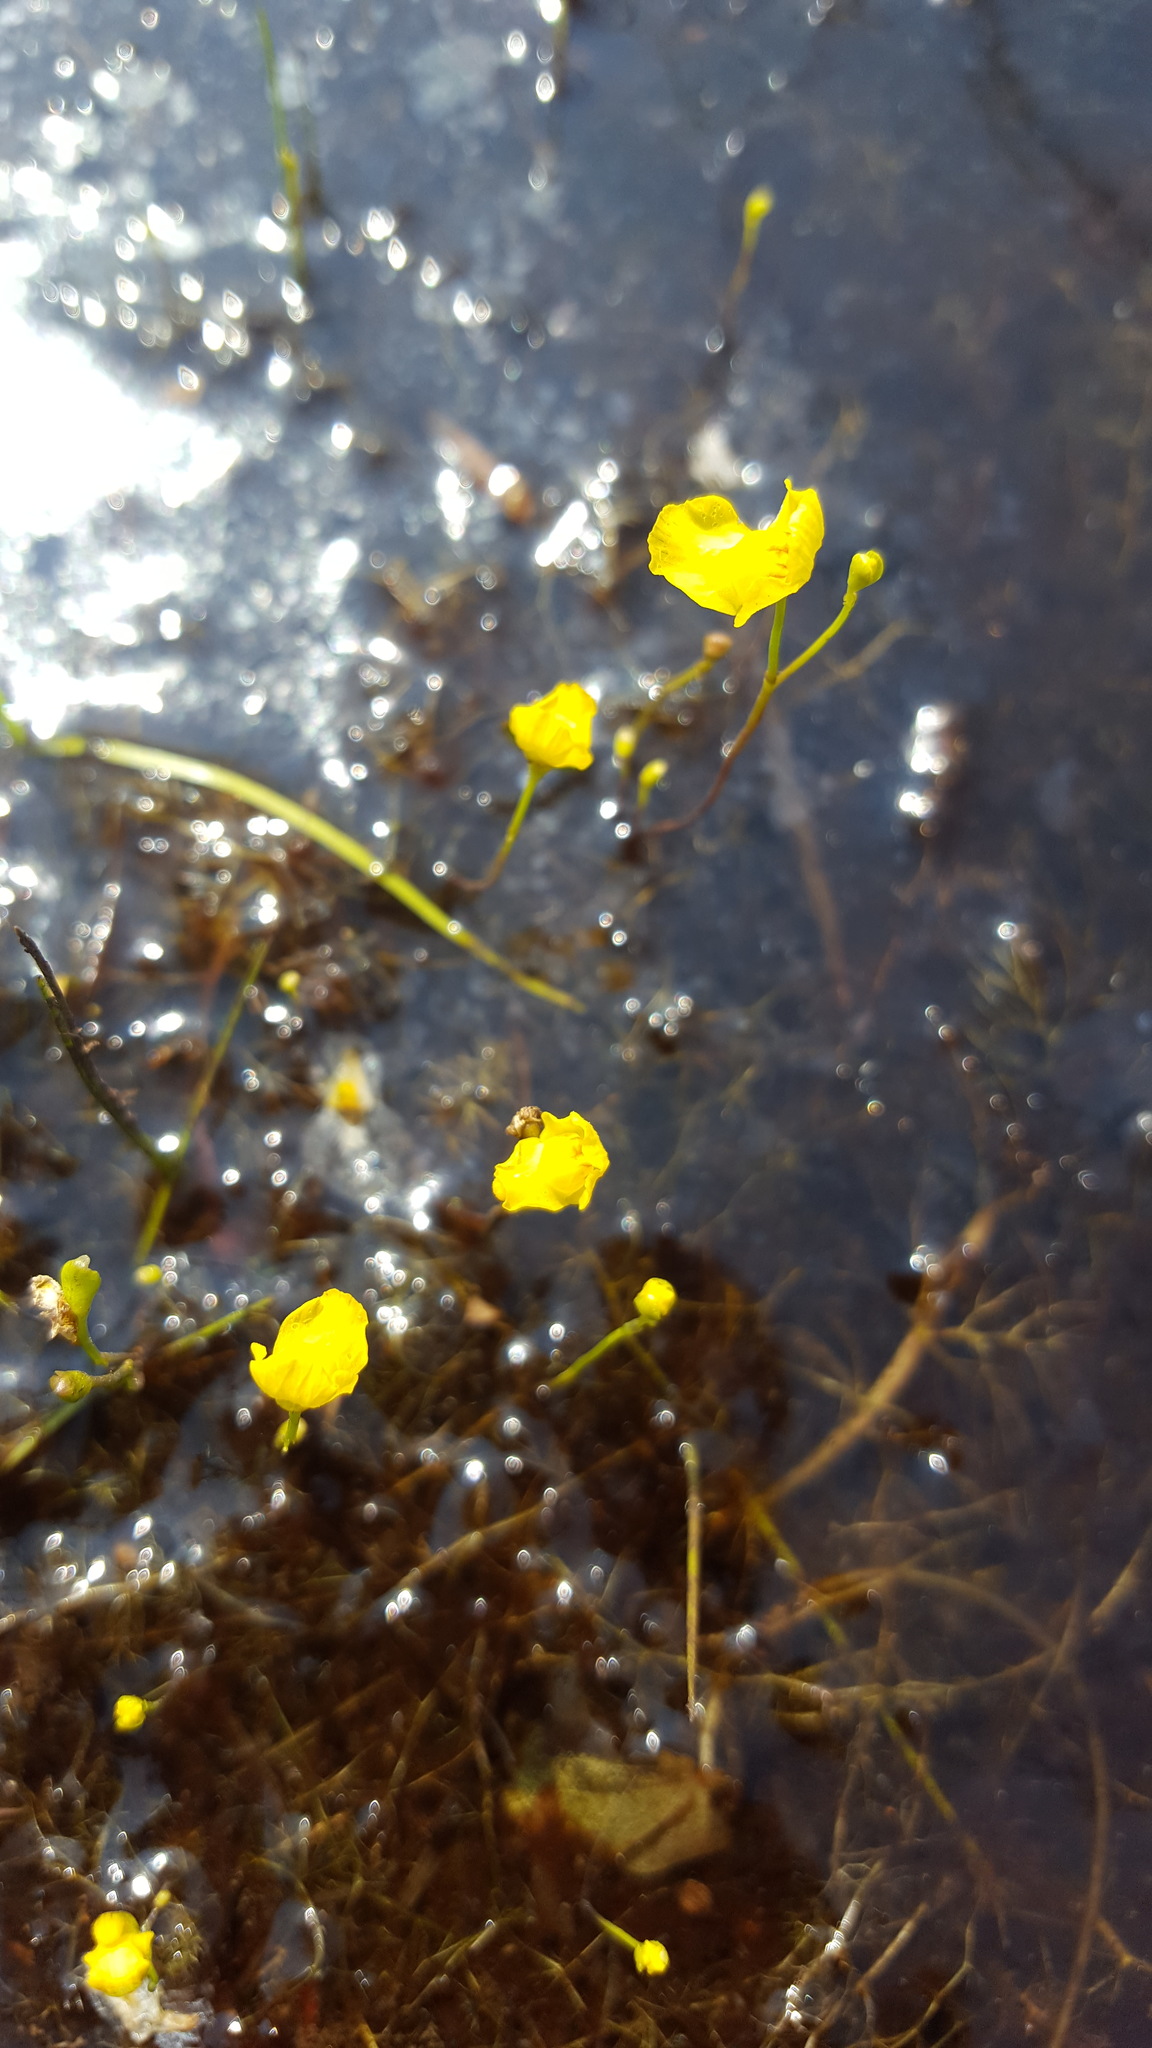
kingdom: Plantae
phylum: Tracheophyta
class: Magnoliopsida
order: Lamiales
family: Lentibulariaceae
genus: Utricularia
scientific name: Utricularia gibba
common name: Humped bladderwort
